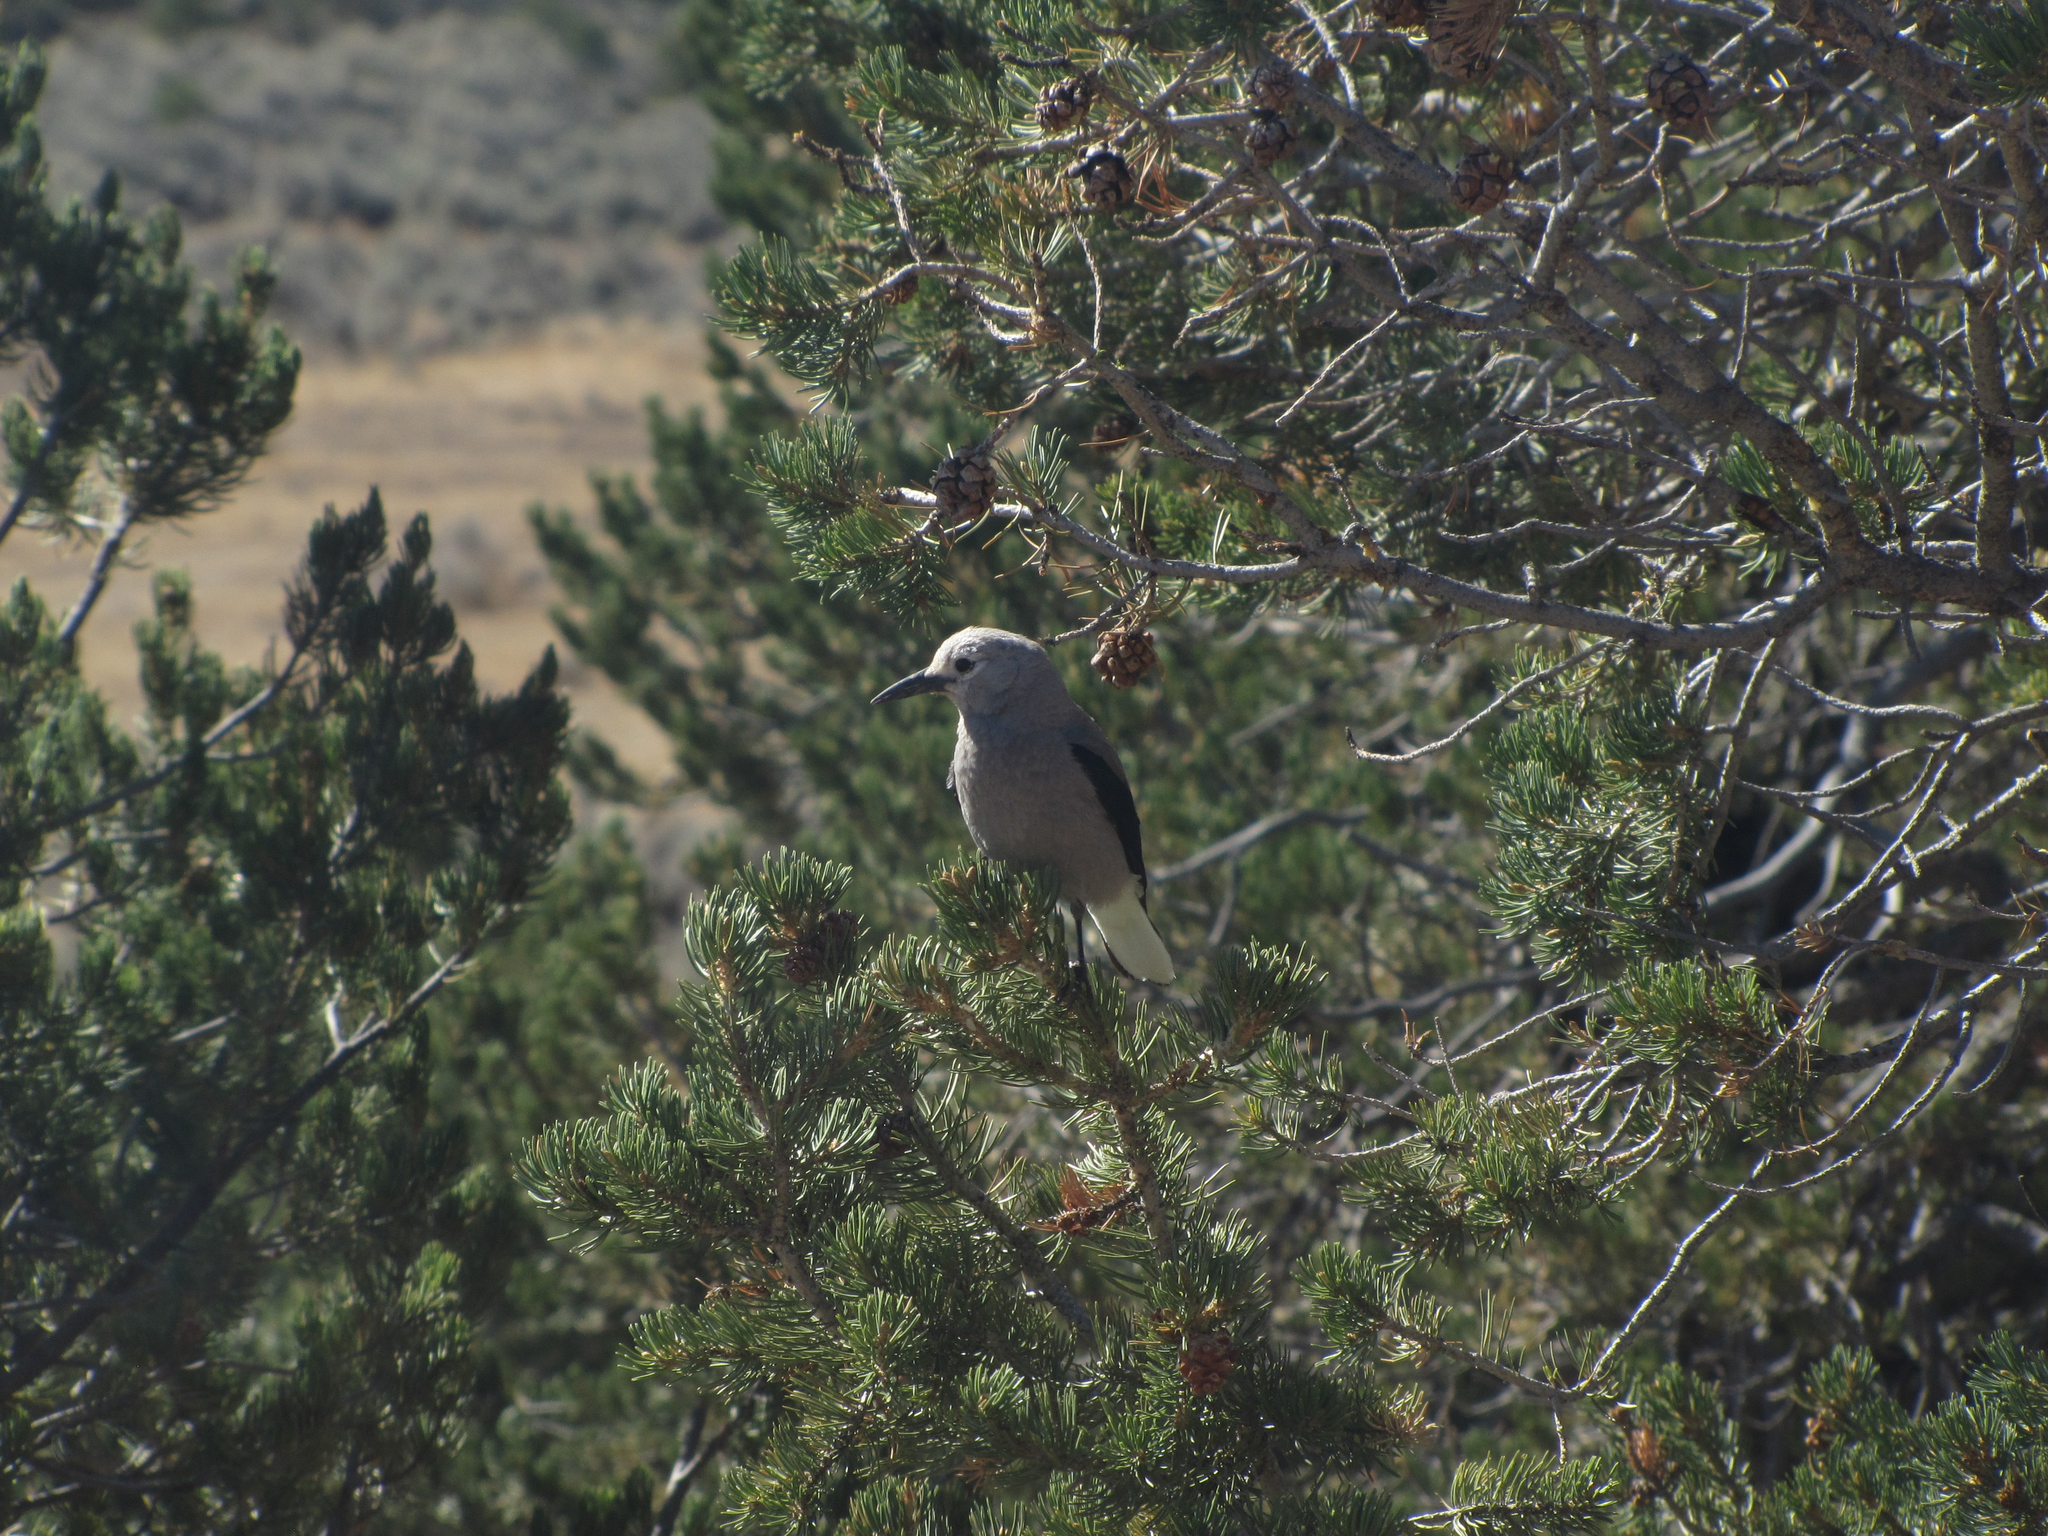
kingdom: Animalia
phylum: Chordata
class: Aves
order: Passeriformes
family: Corvidae
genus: Nucifraga
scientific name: Nucifraga columbiana
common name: Clark's nutcracker
